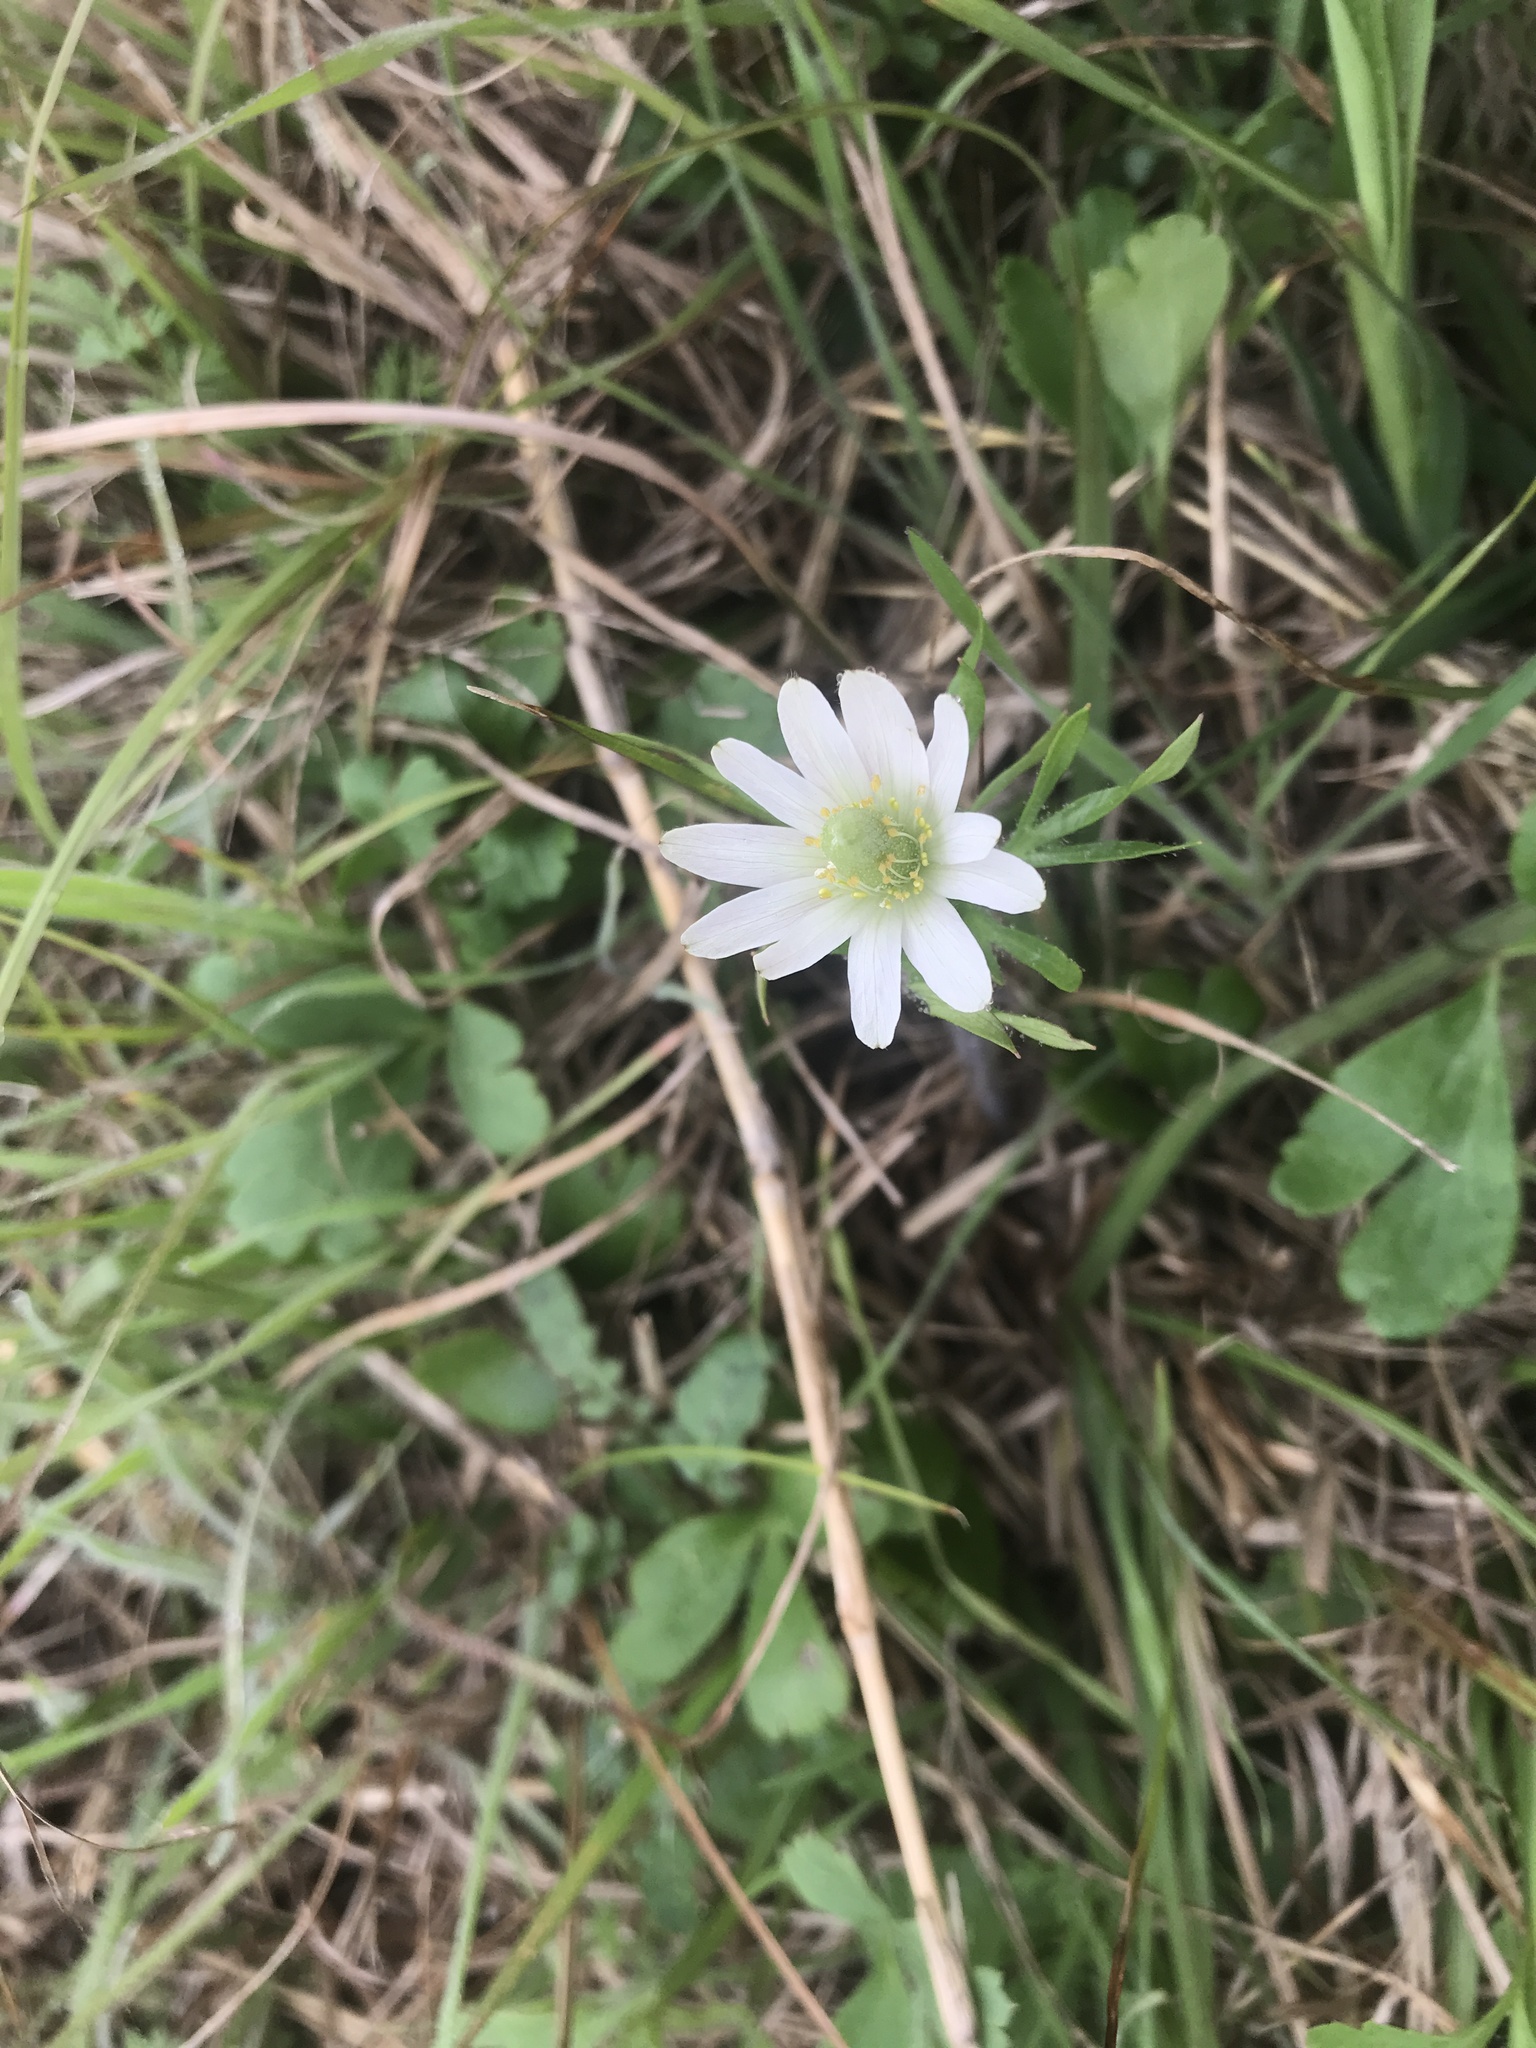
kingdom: Plantae
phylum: Tracheophyta
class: Magnoliopsida
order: Ranunculales
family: Ranunculaceae
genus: Anemone
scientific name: Anemone berlandieri
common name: Ten-petal anemone
